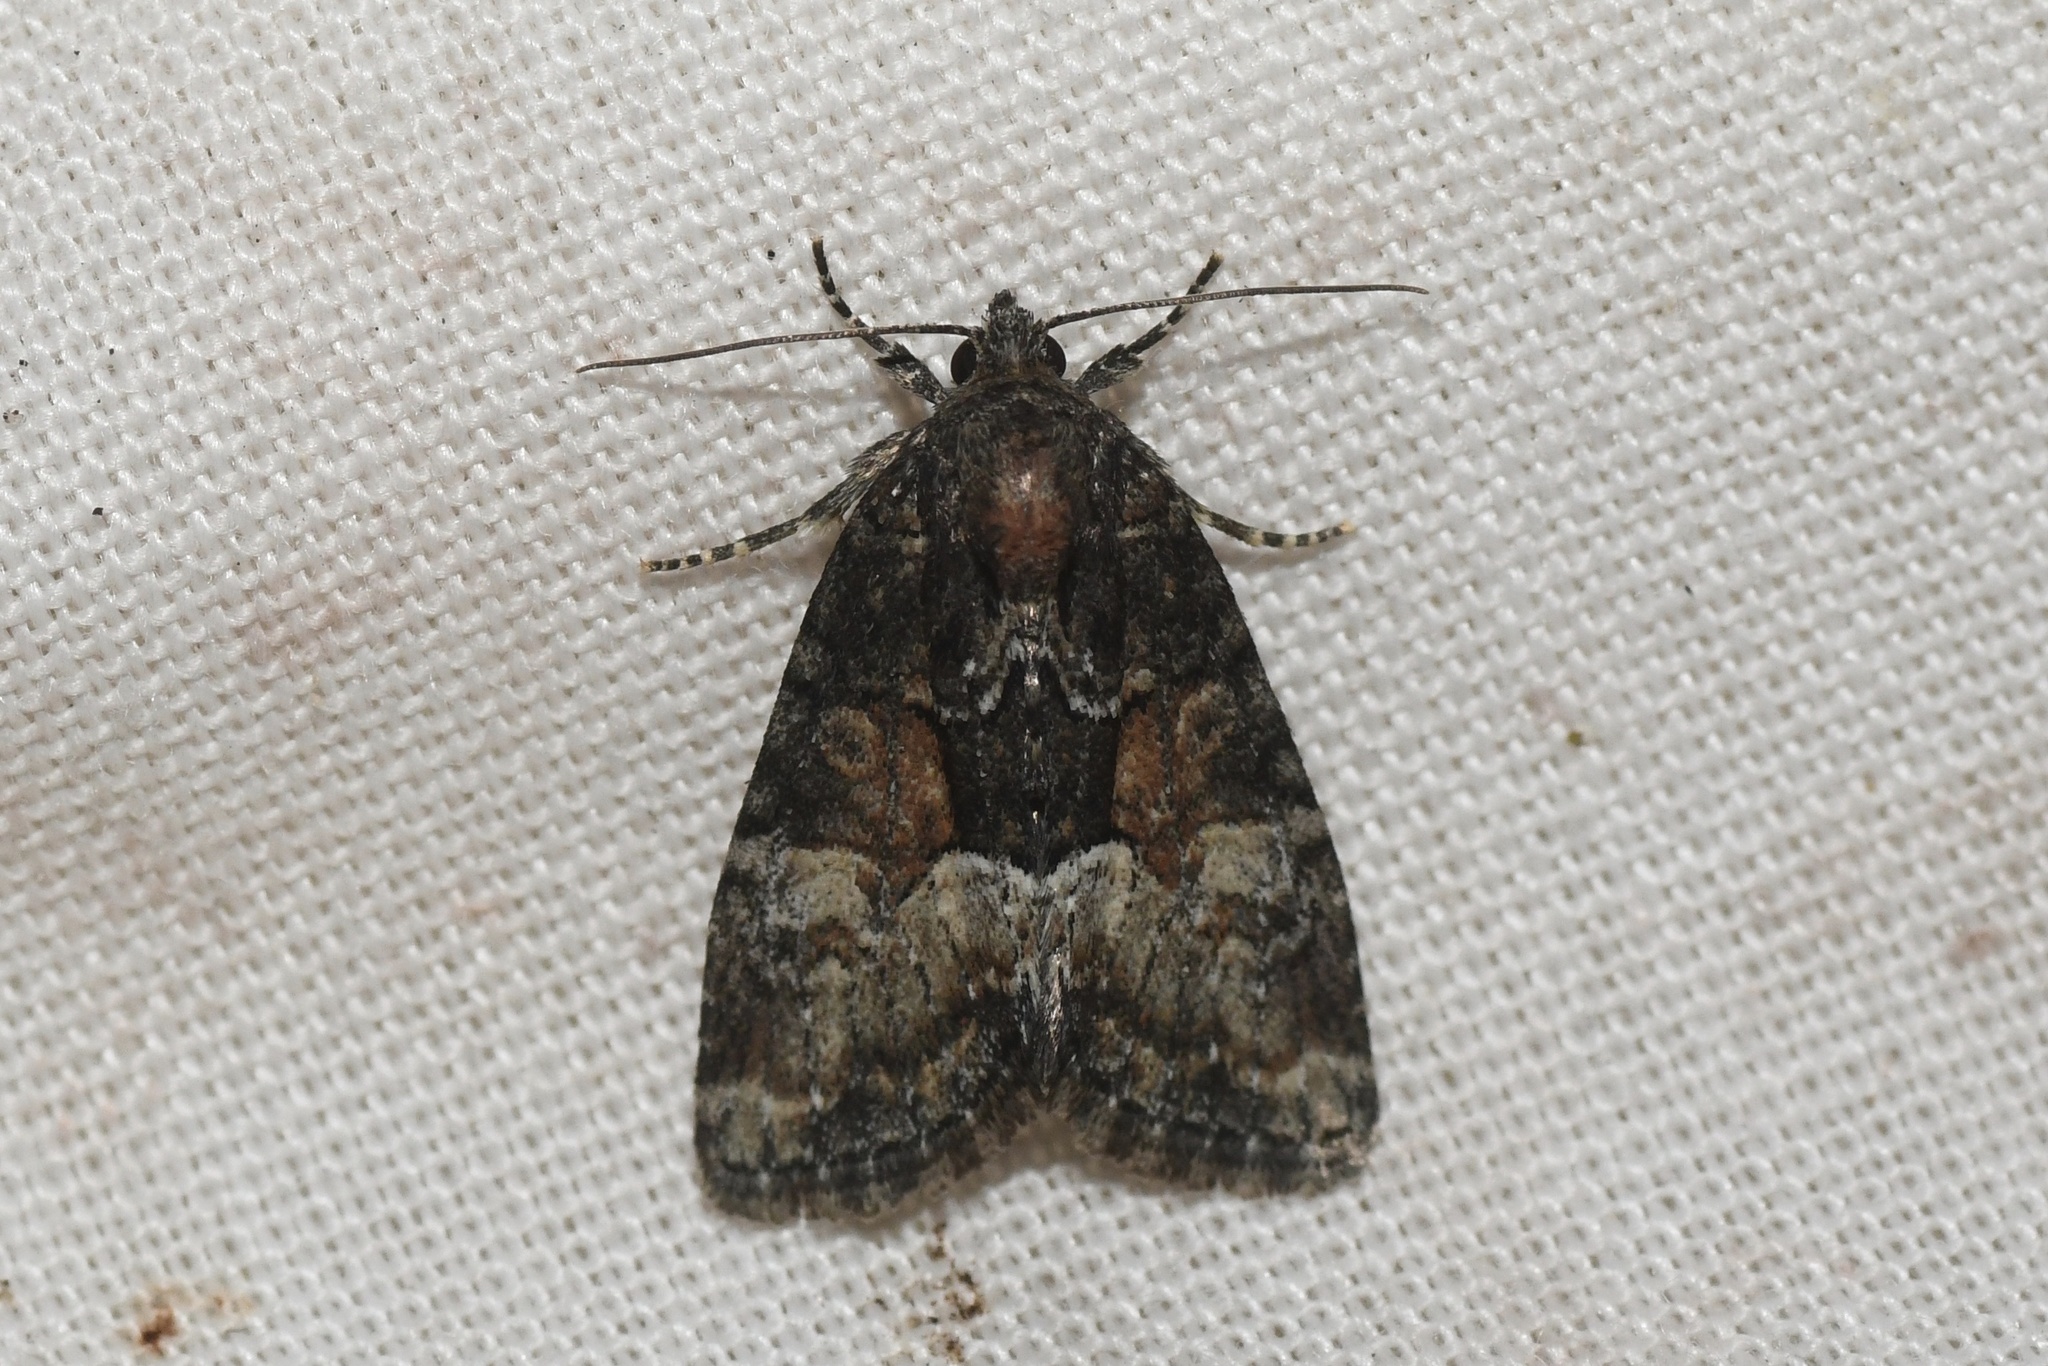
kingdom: Animalia
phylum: Arthropoda
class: Insecta
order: Lepidoptera
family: Noctuidae
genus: Neoligia
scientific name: Neoligia subjuncta
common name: Connected brocade
